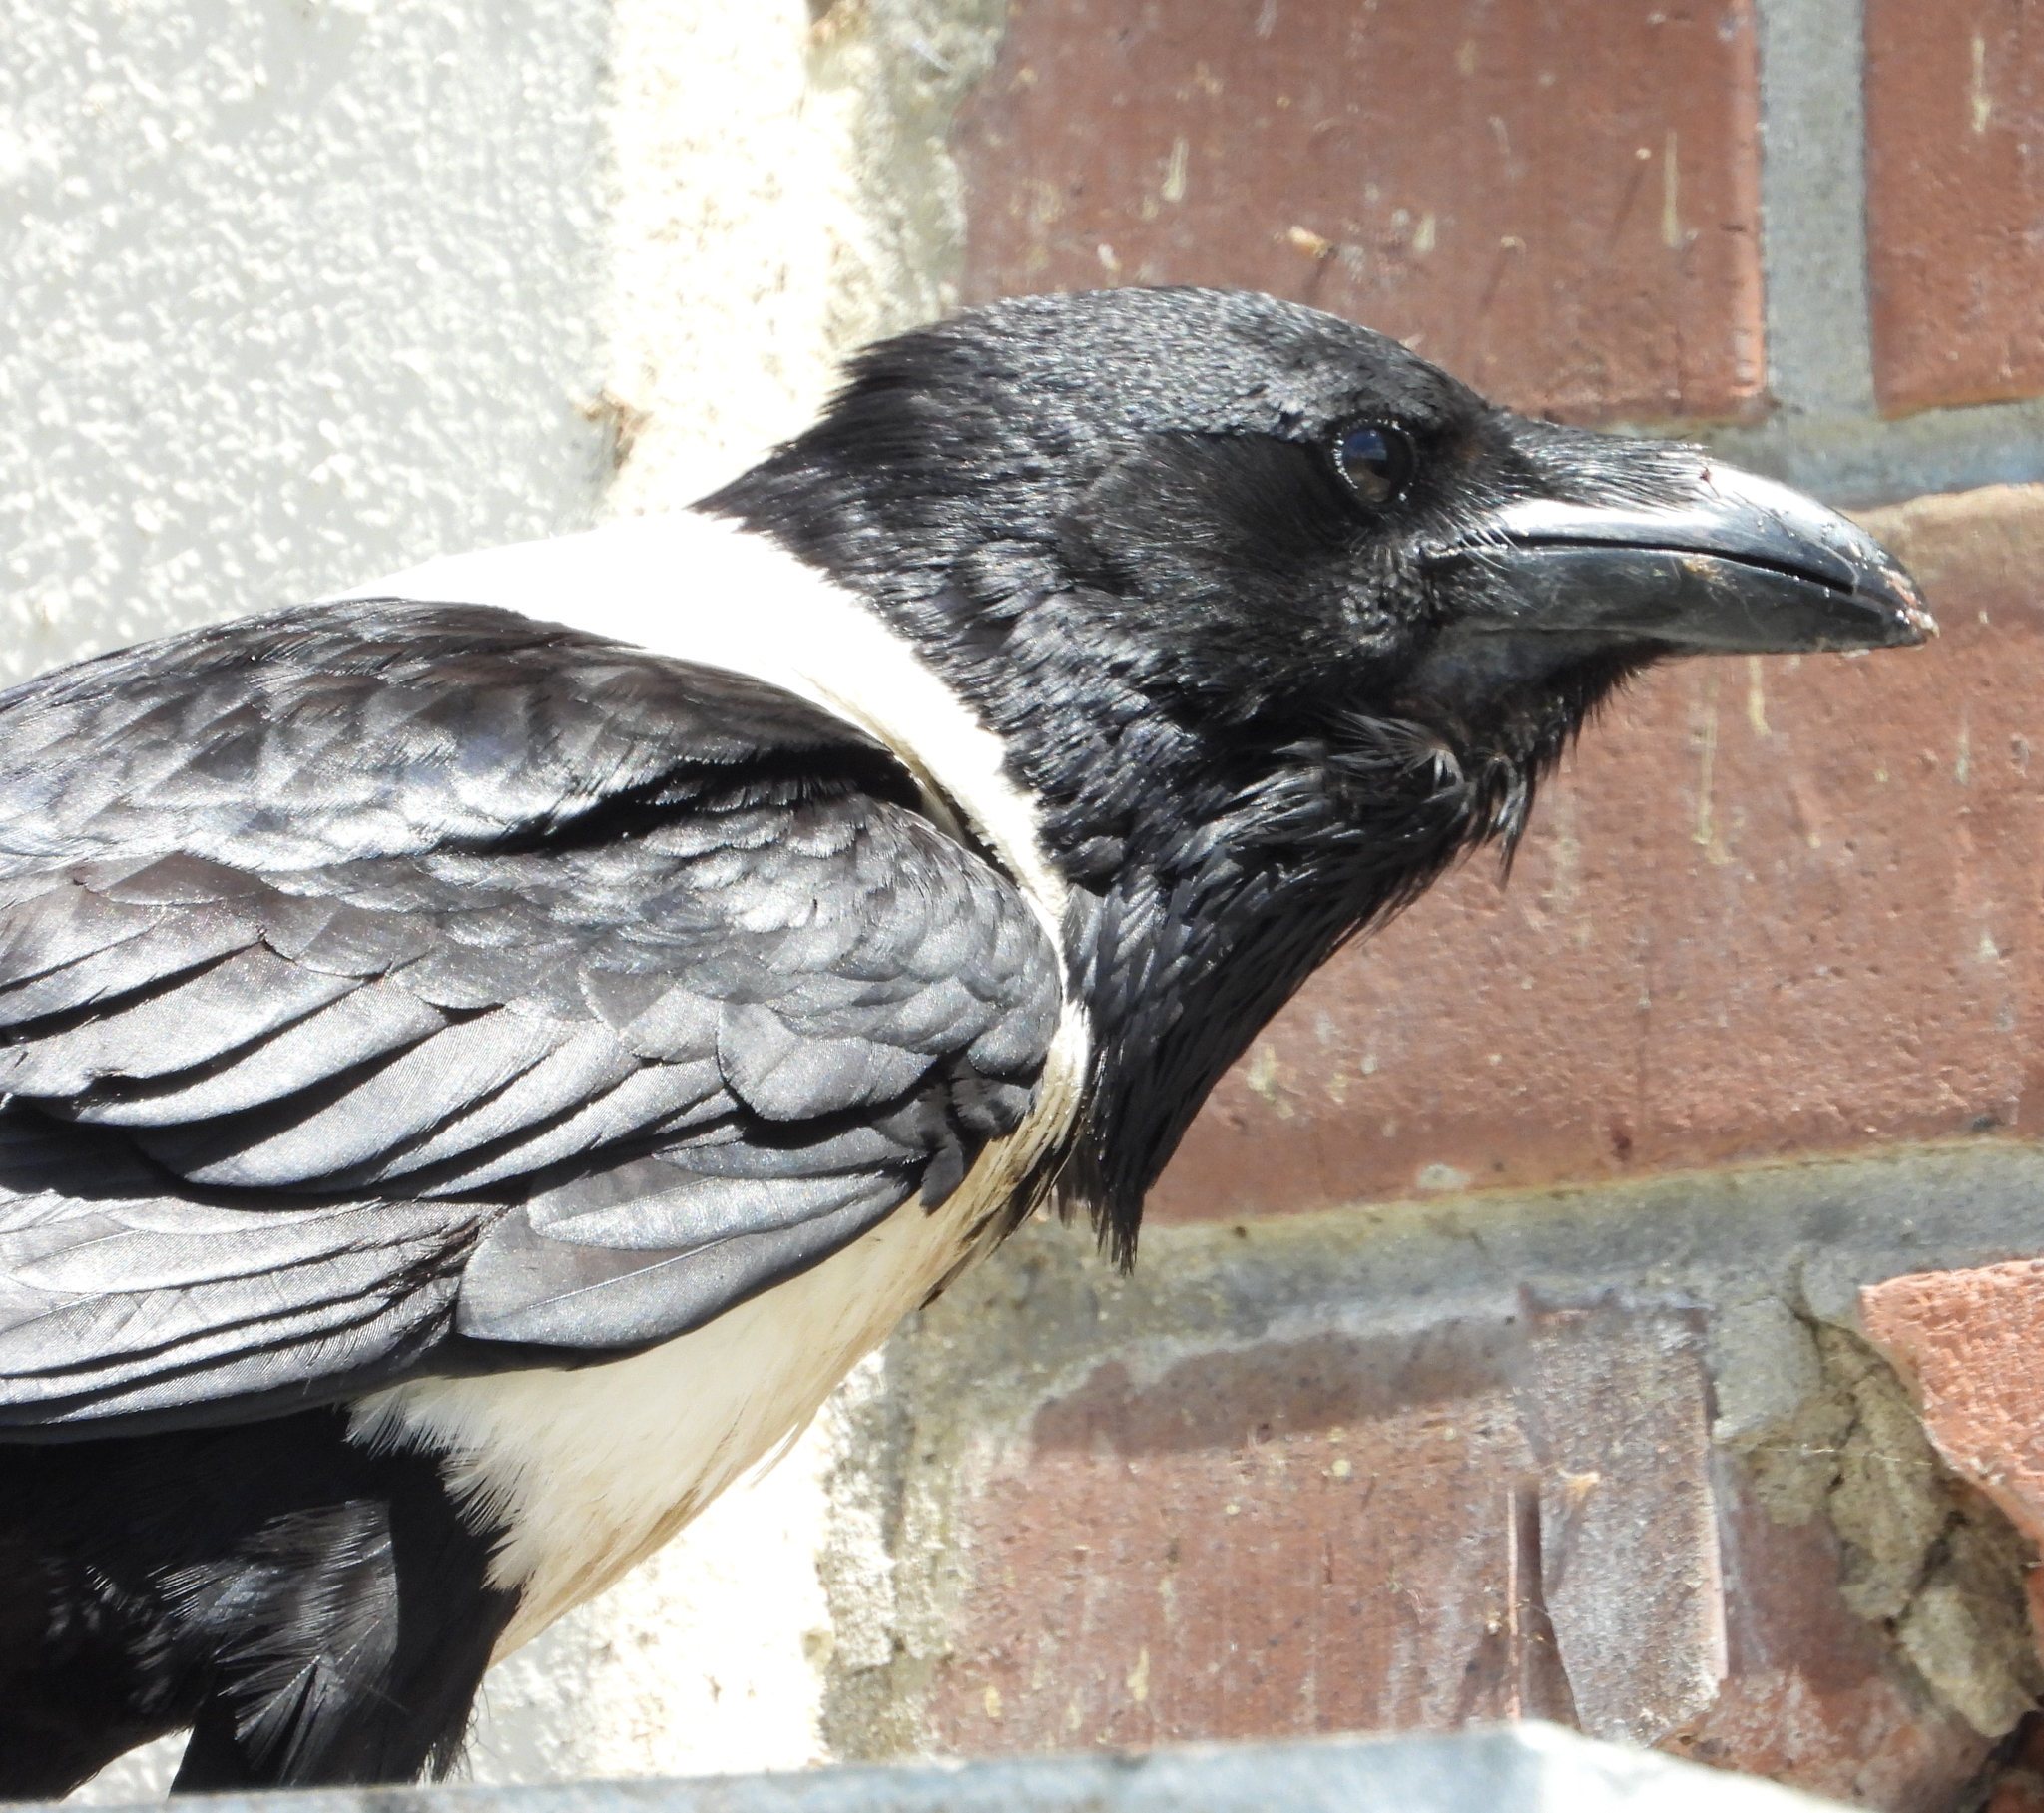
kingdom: Animalia
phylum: Chordata
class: Aves
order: Passeriformes
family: Corvidae
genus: Corvus
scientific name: Corvus albus
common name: Pied crow
